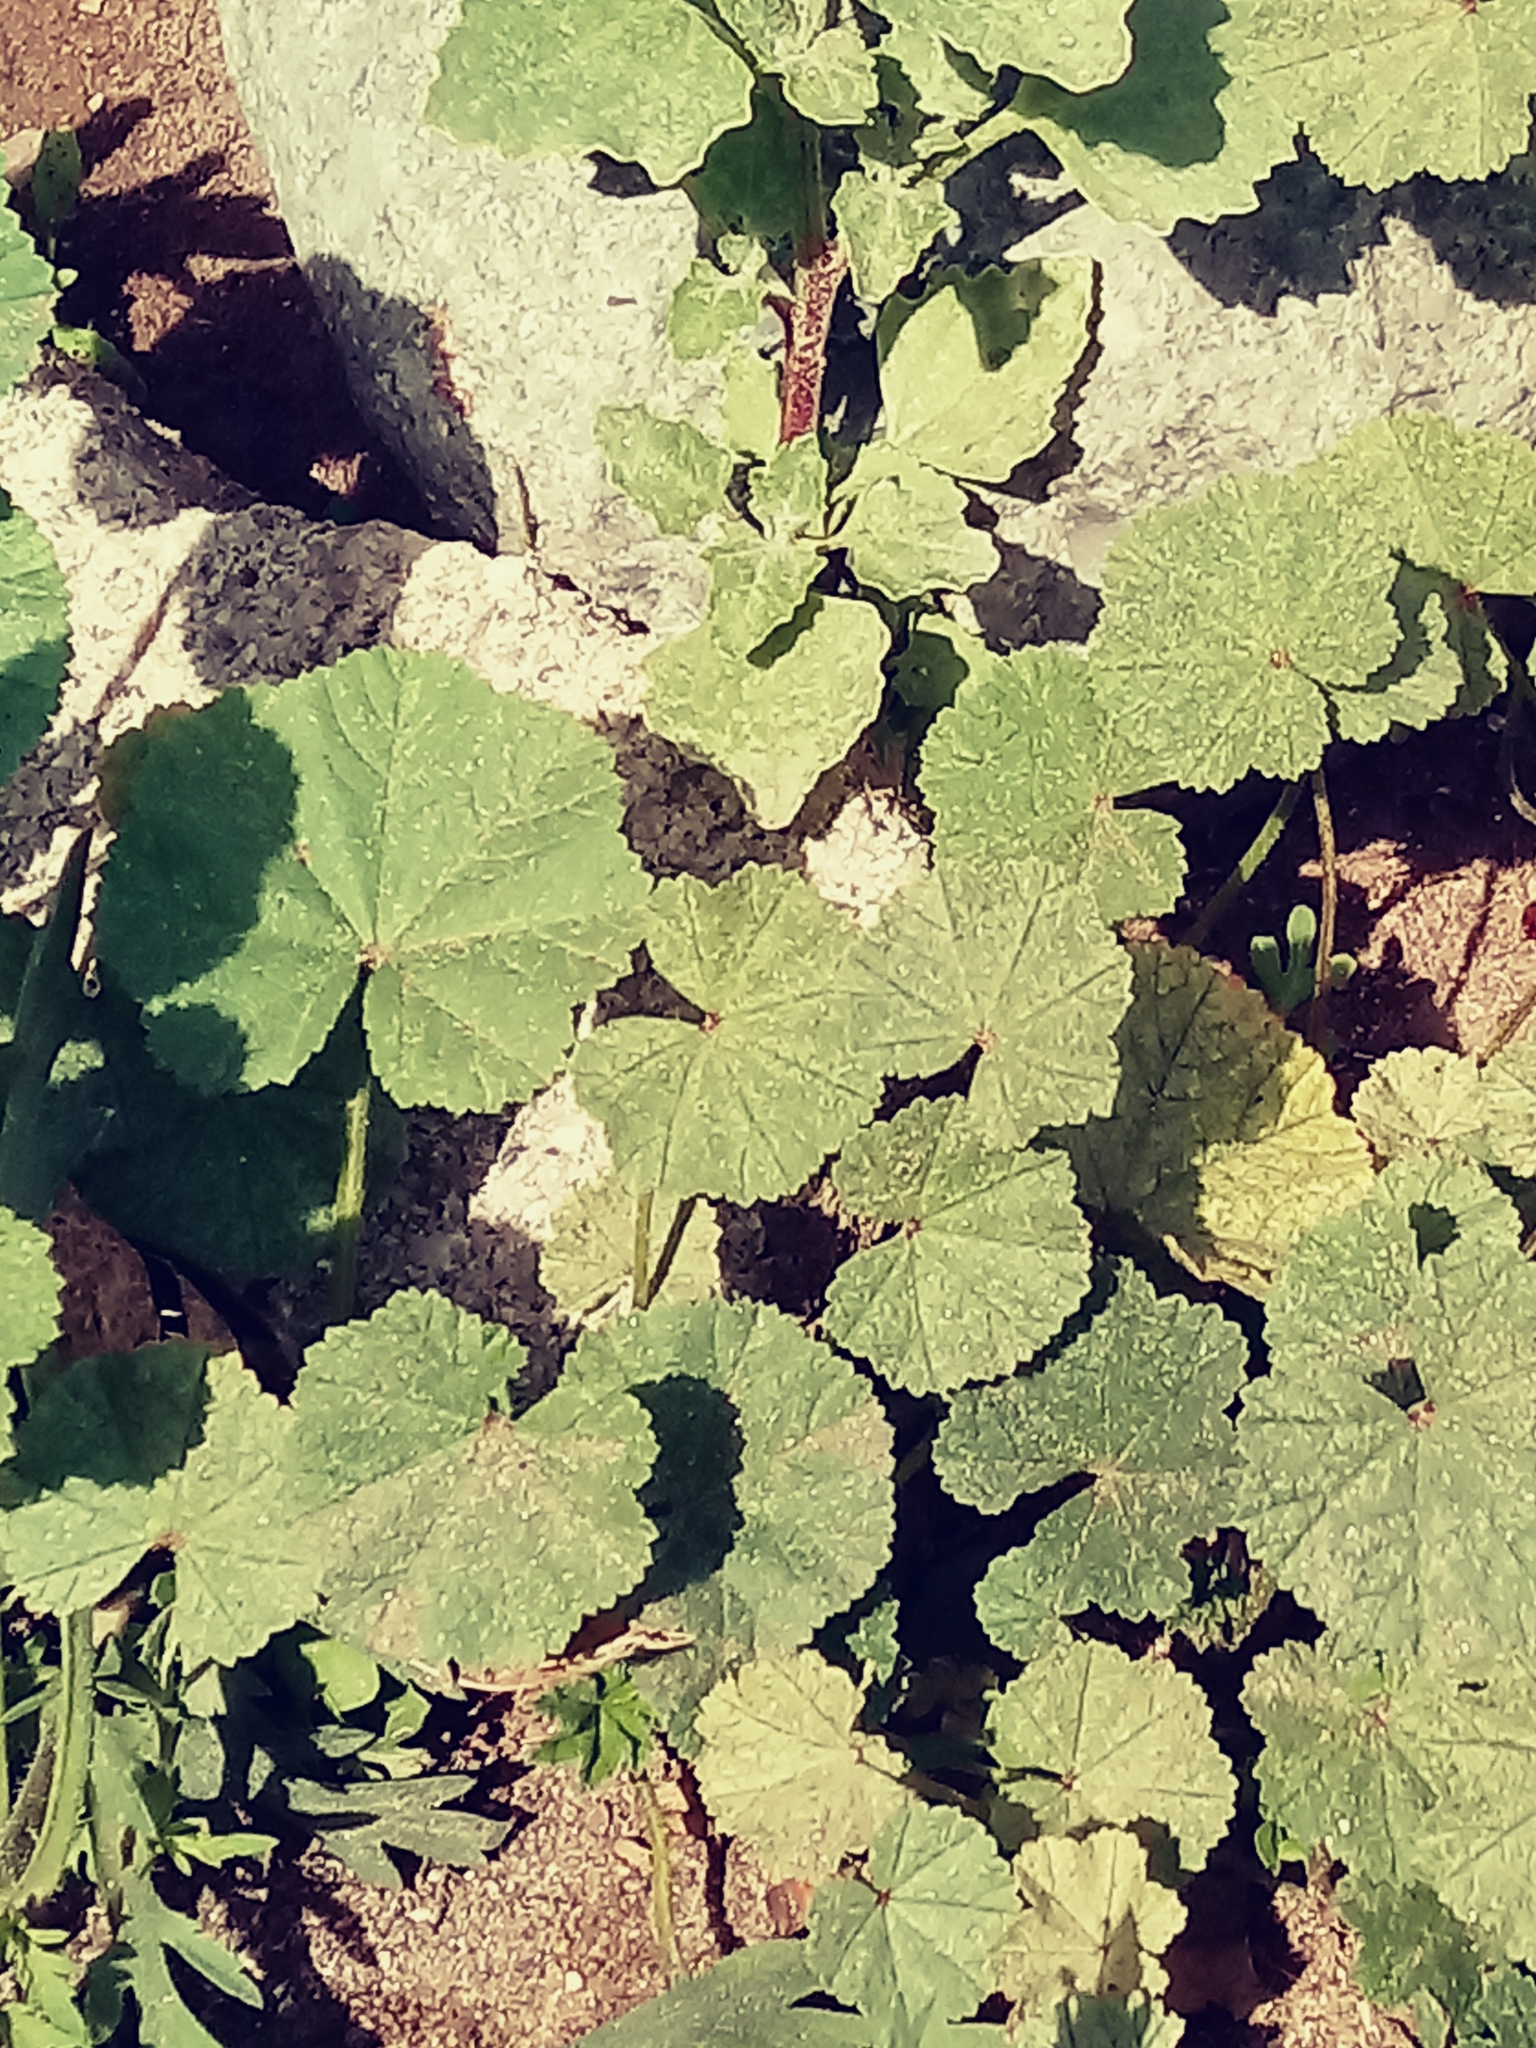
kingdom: Plantae
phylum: Tracheophyta
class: Magnoliopsida
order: Malvales
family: Malvaceae
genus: Malva
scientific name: Malva parviflora
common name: Least mallow
